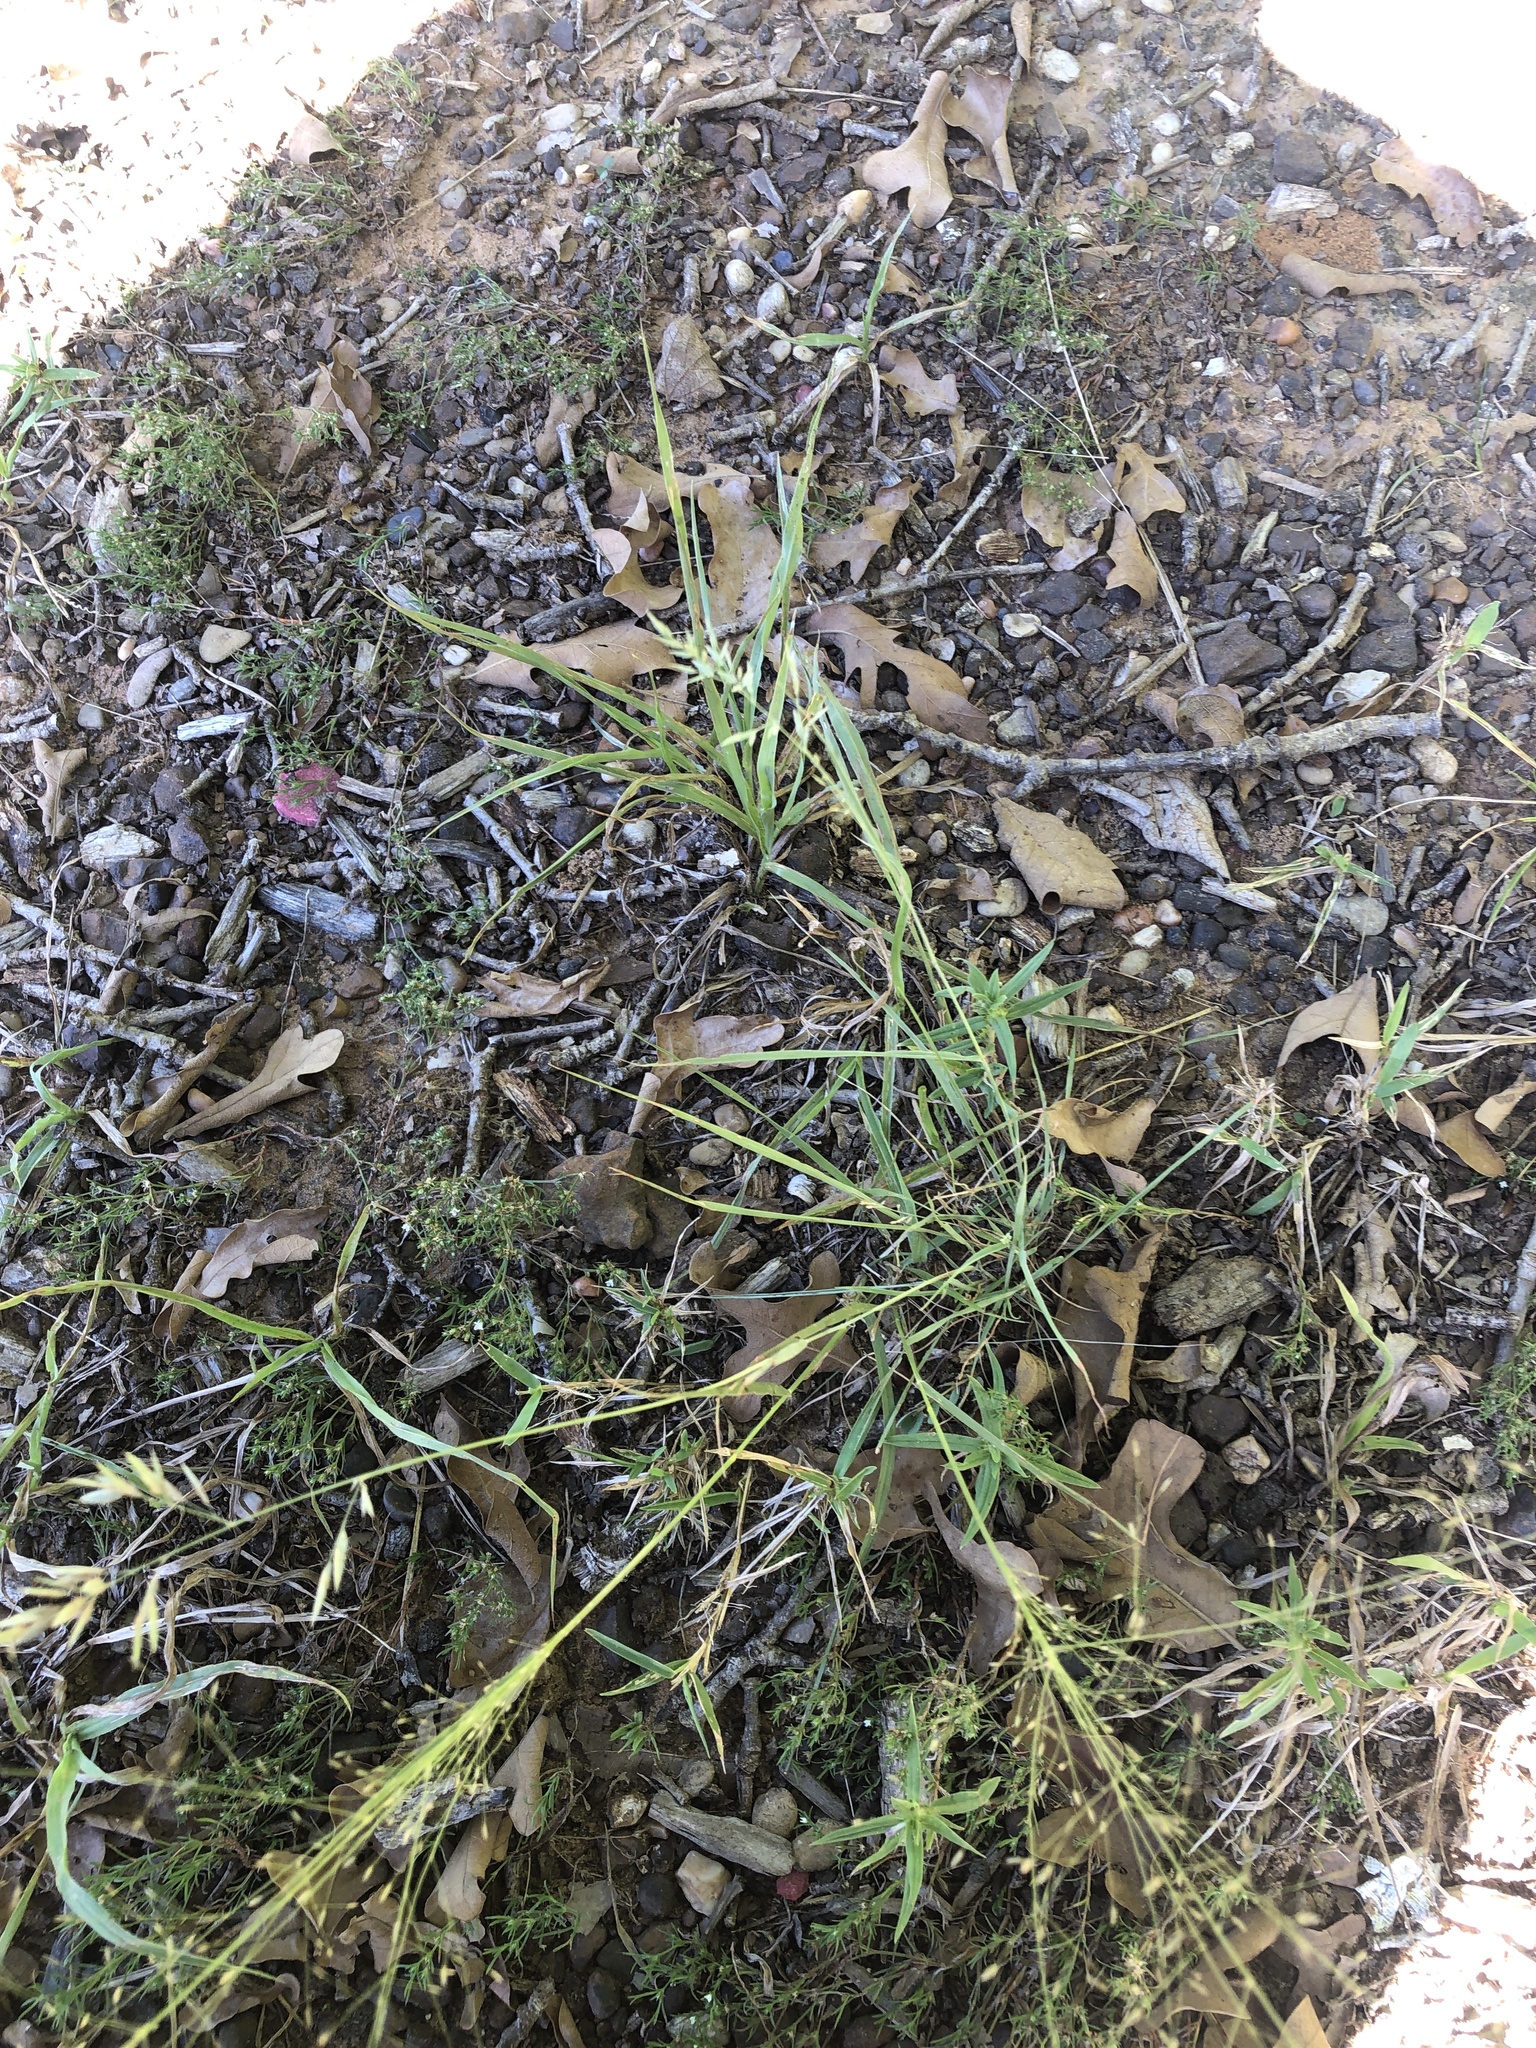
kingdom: Plantae
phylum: Tracheophyta
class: Liliopsida
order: Poales
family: Poaceae
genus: Eragrostis
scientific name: Eragrostis secundiflora
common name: Red love grass
